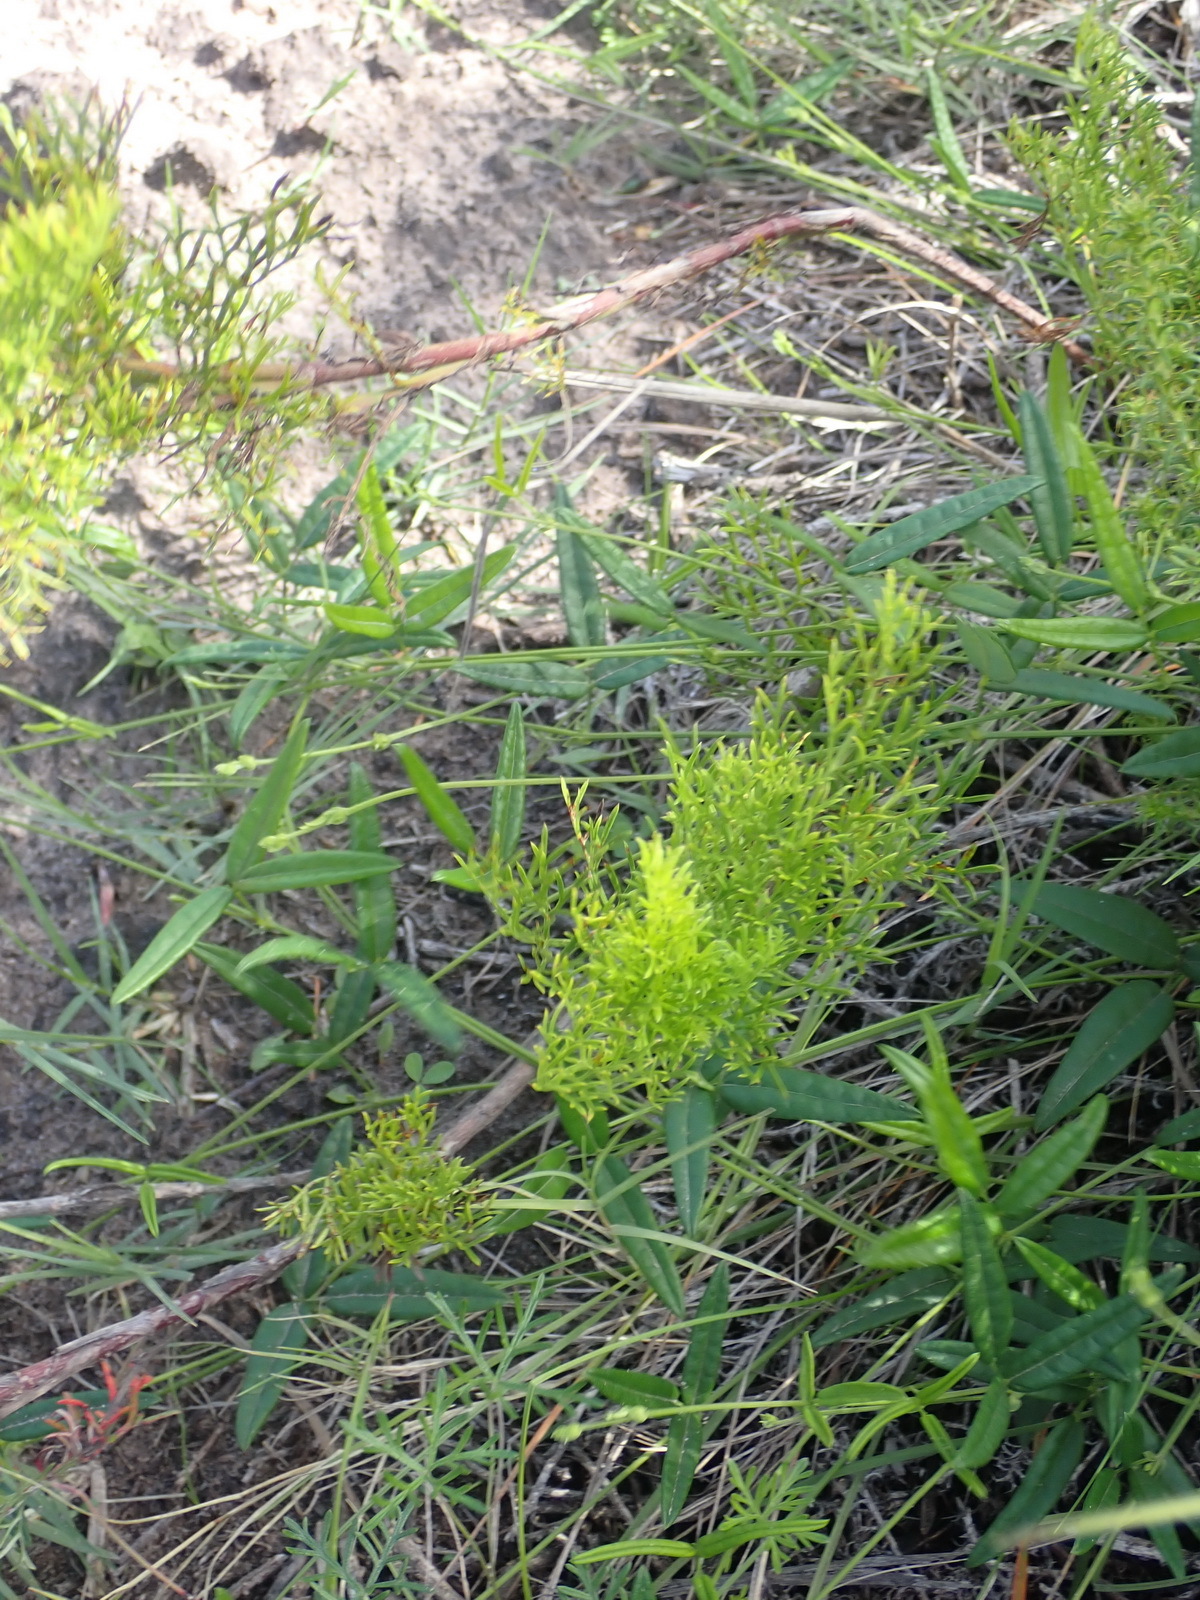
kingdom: Plantae
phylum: Tracheophyta
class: Magnoliopsida
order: Apiales
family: Apiaceae
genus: Notobubon
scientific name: Notobubon ferulaceum
